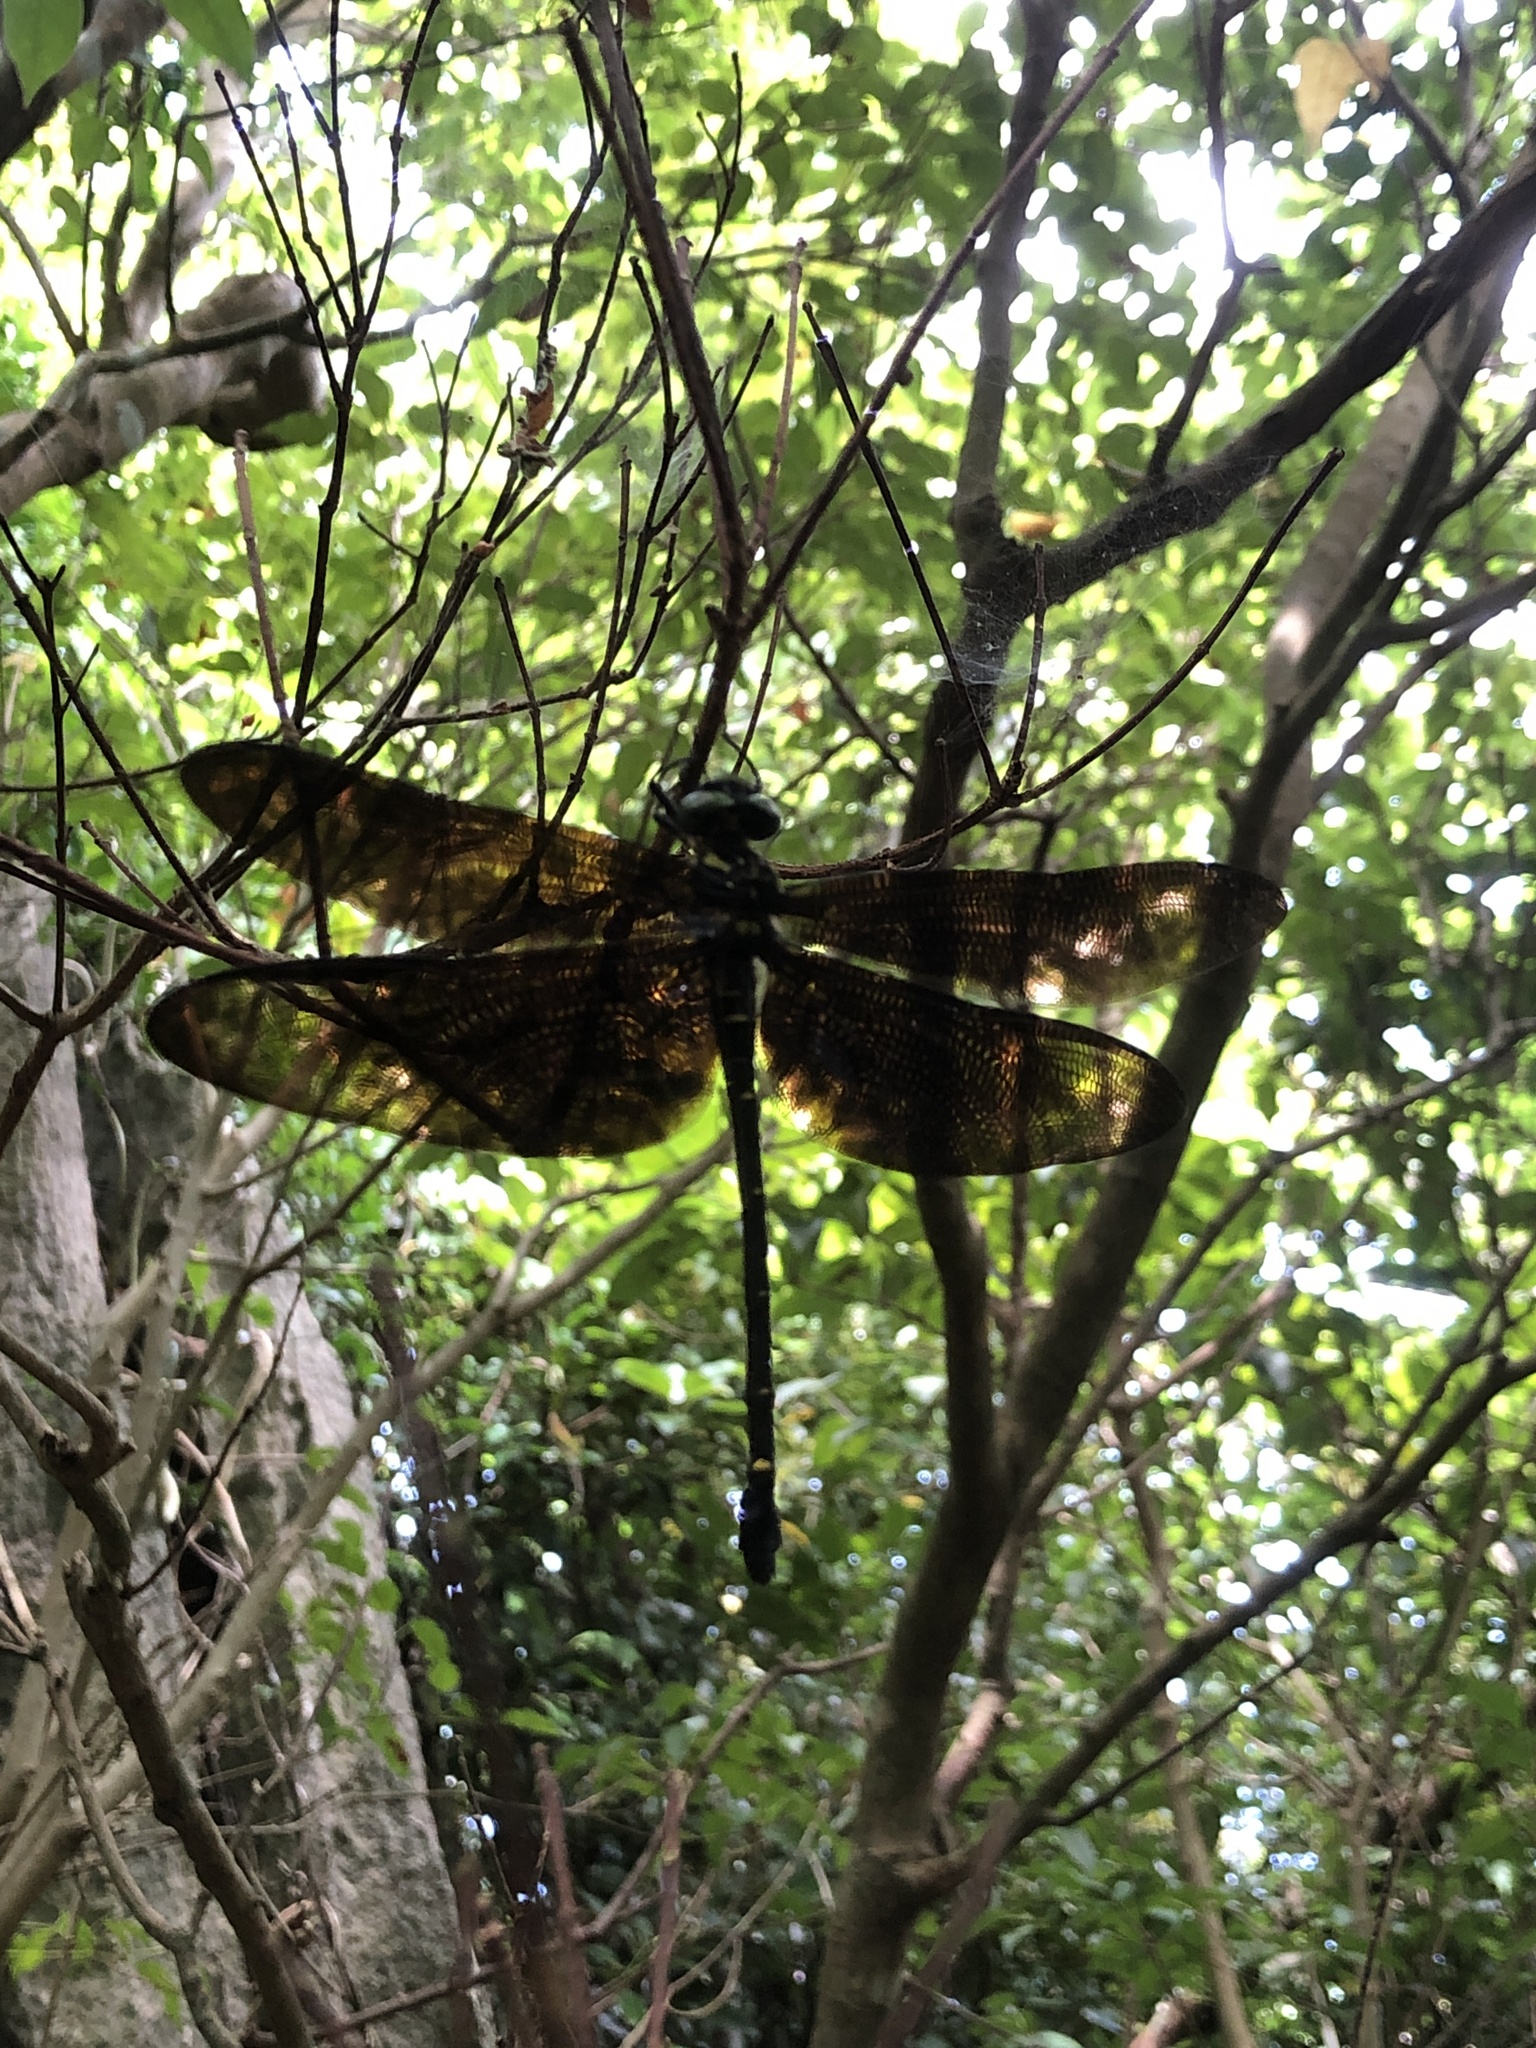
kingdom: Animalia
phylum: Arthropoda
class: Insecta
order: Odonata
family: Chlorogomphidae
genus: Chlorogomphus
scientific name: Chlorogomphus brunneus
